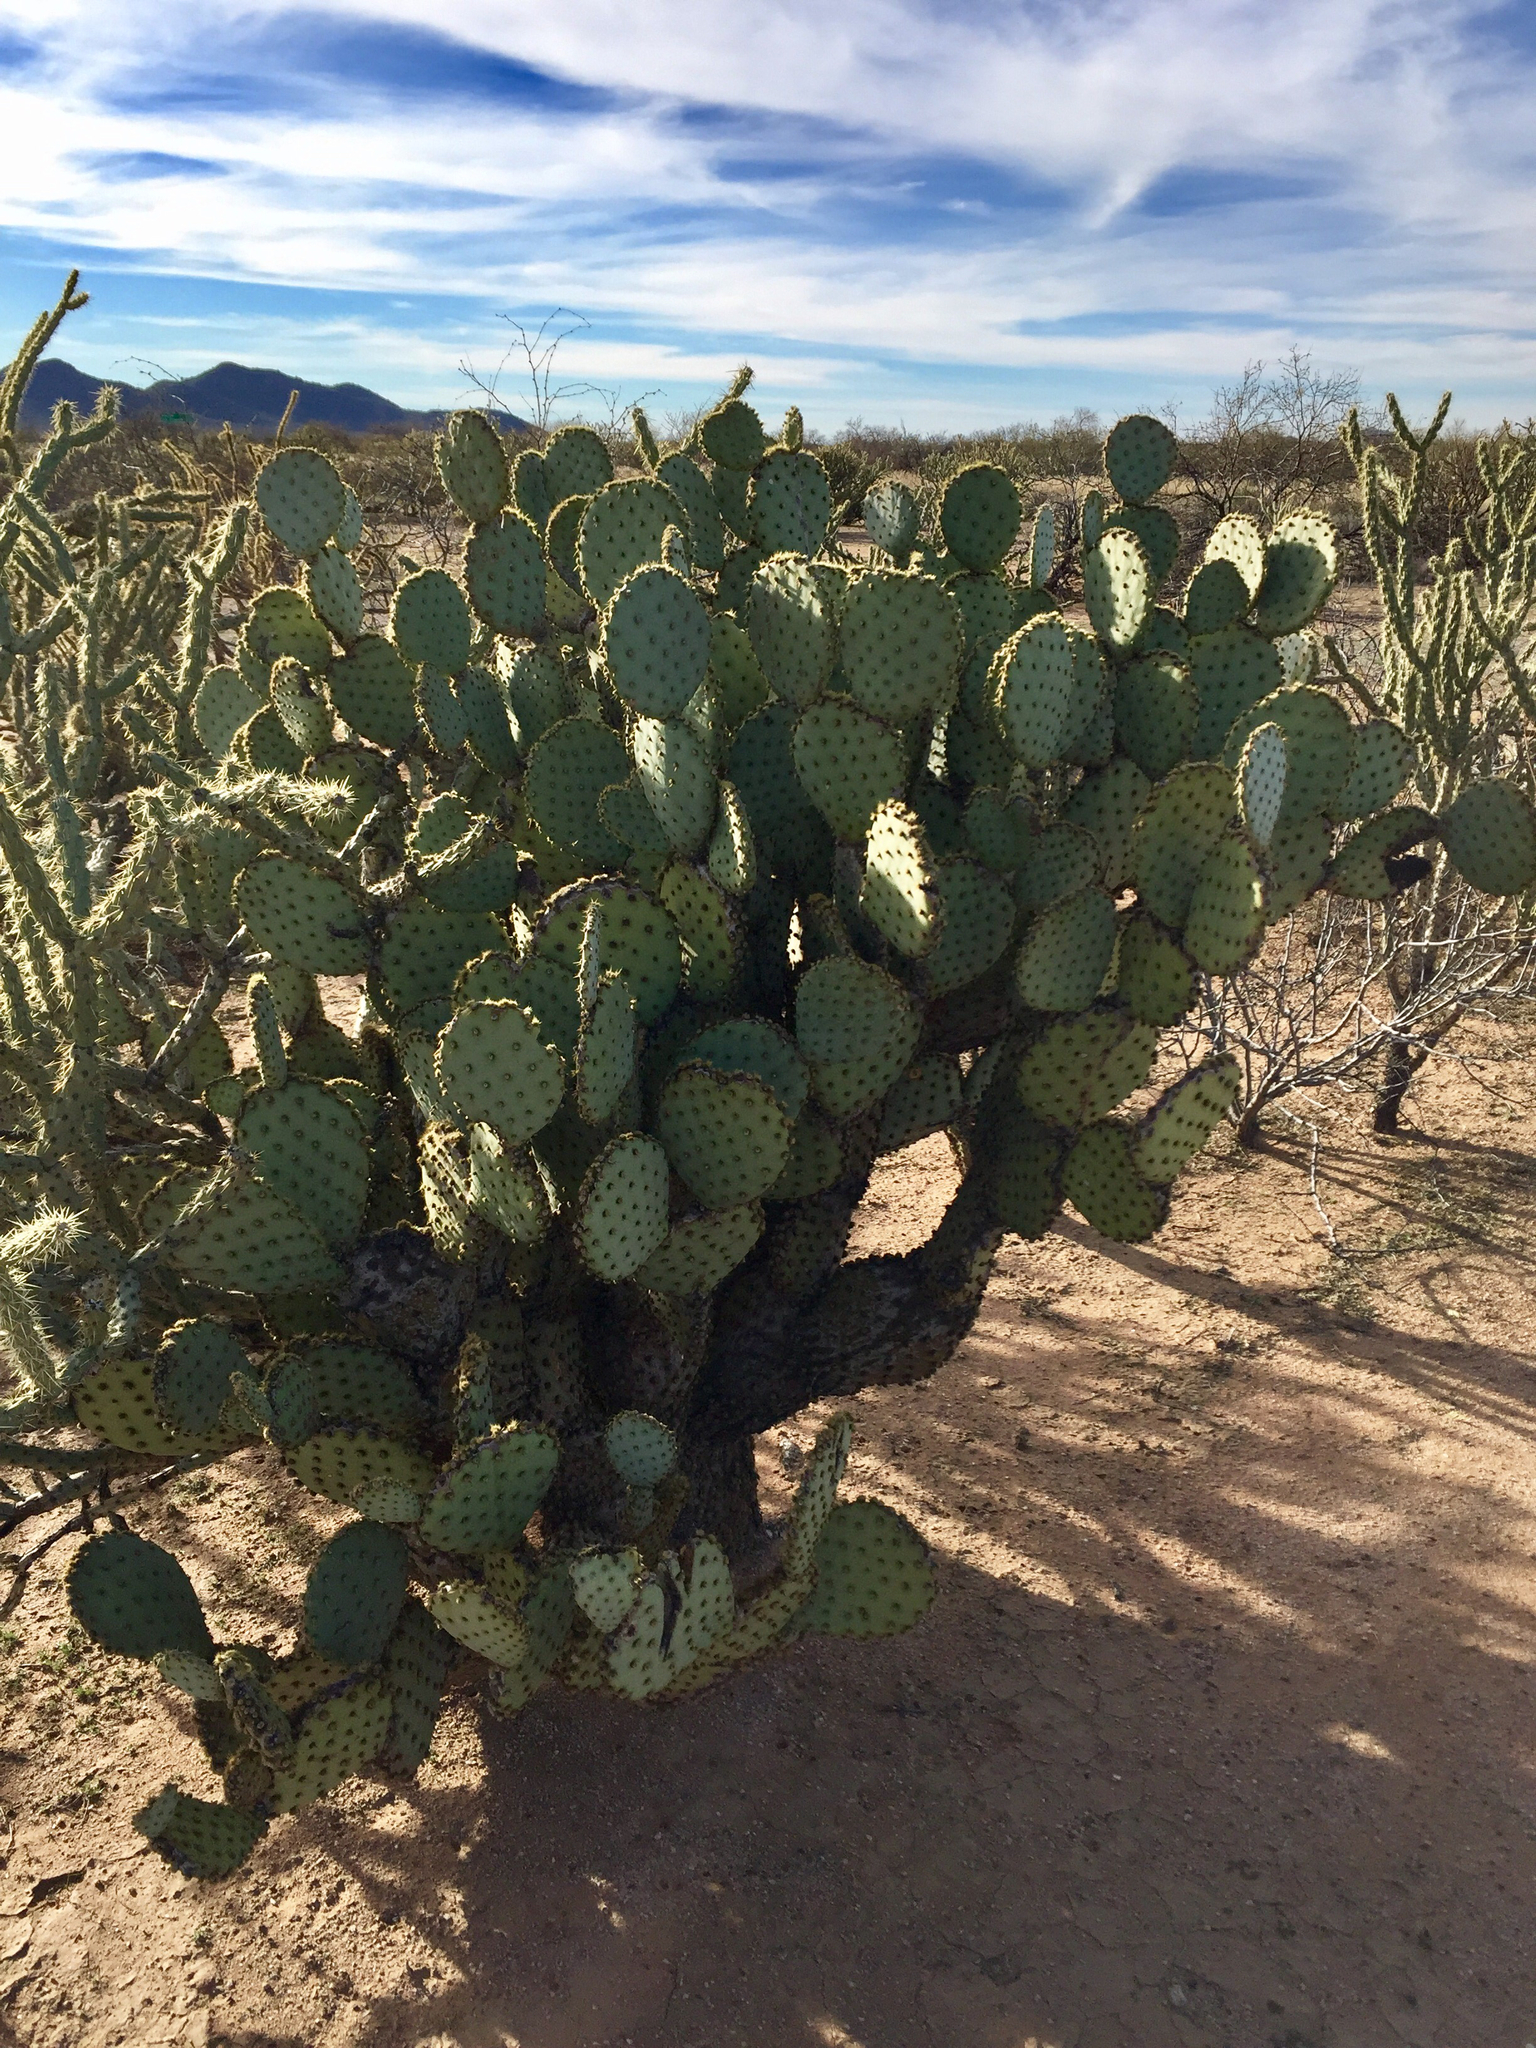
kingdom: Plantae
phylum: Tracheophyta
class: Magnoliopsida
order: Caryophyllales
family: Cactaceae
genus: Opuntia
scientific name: Opuntia chlorotica
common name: Dollar-joint prickly-pear
